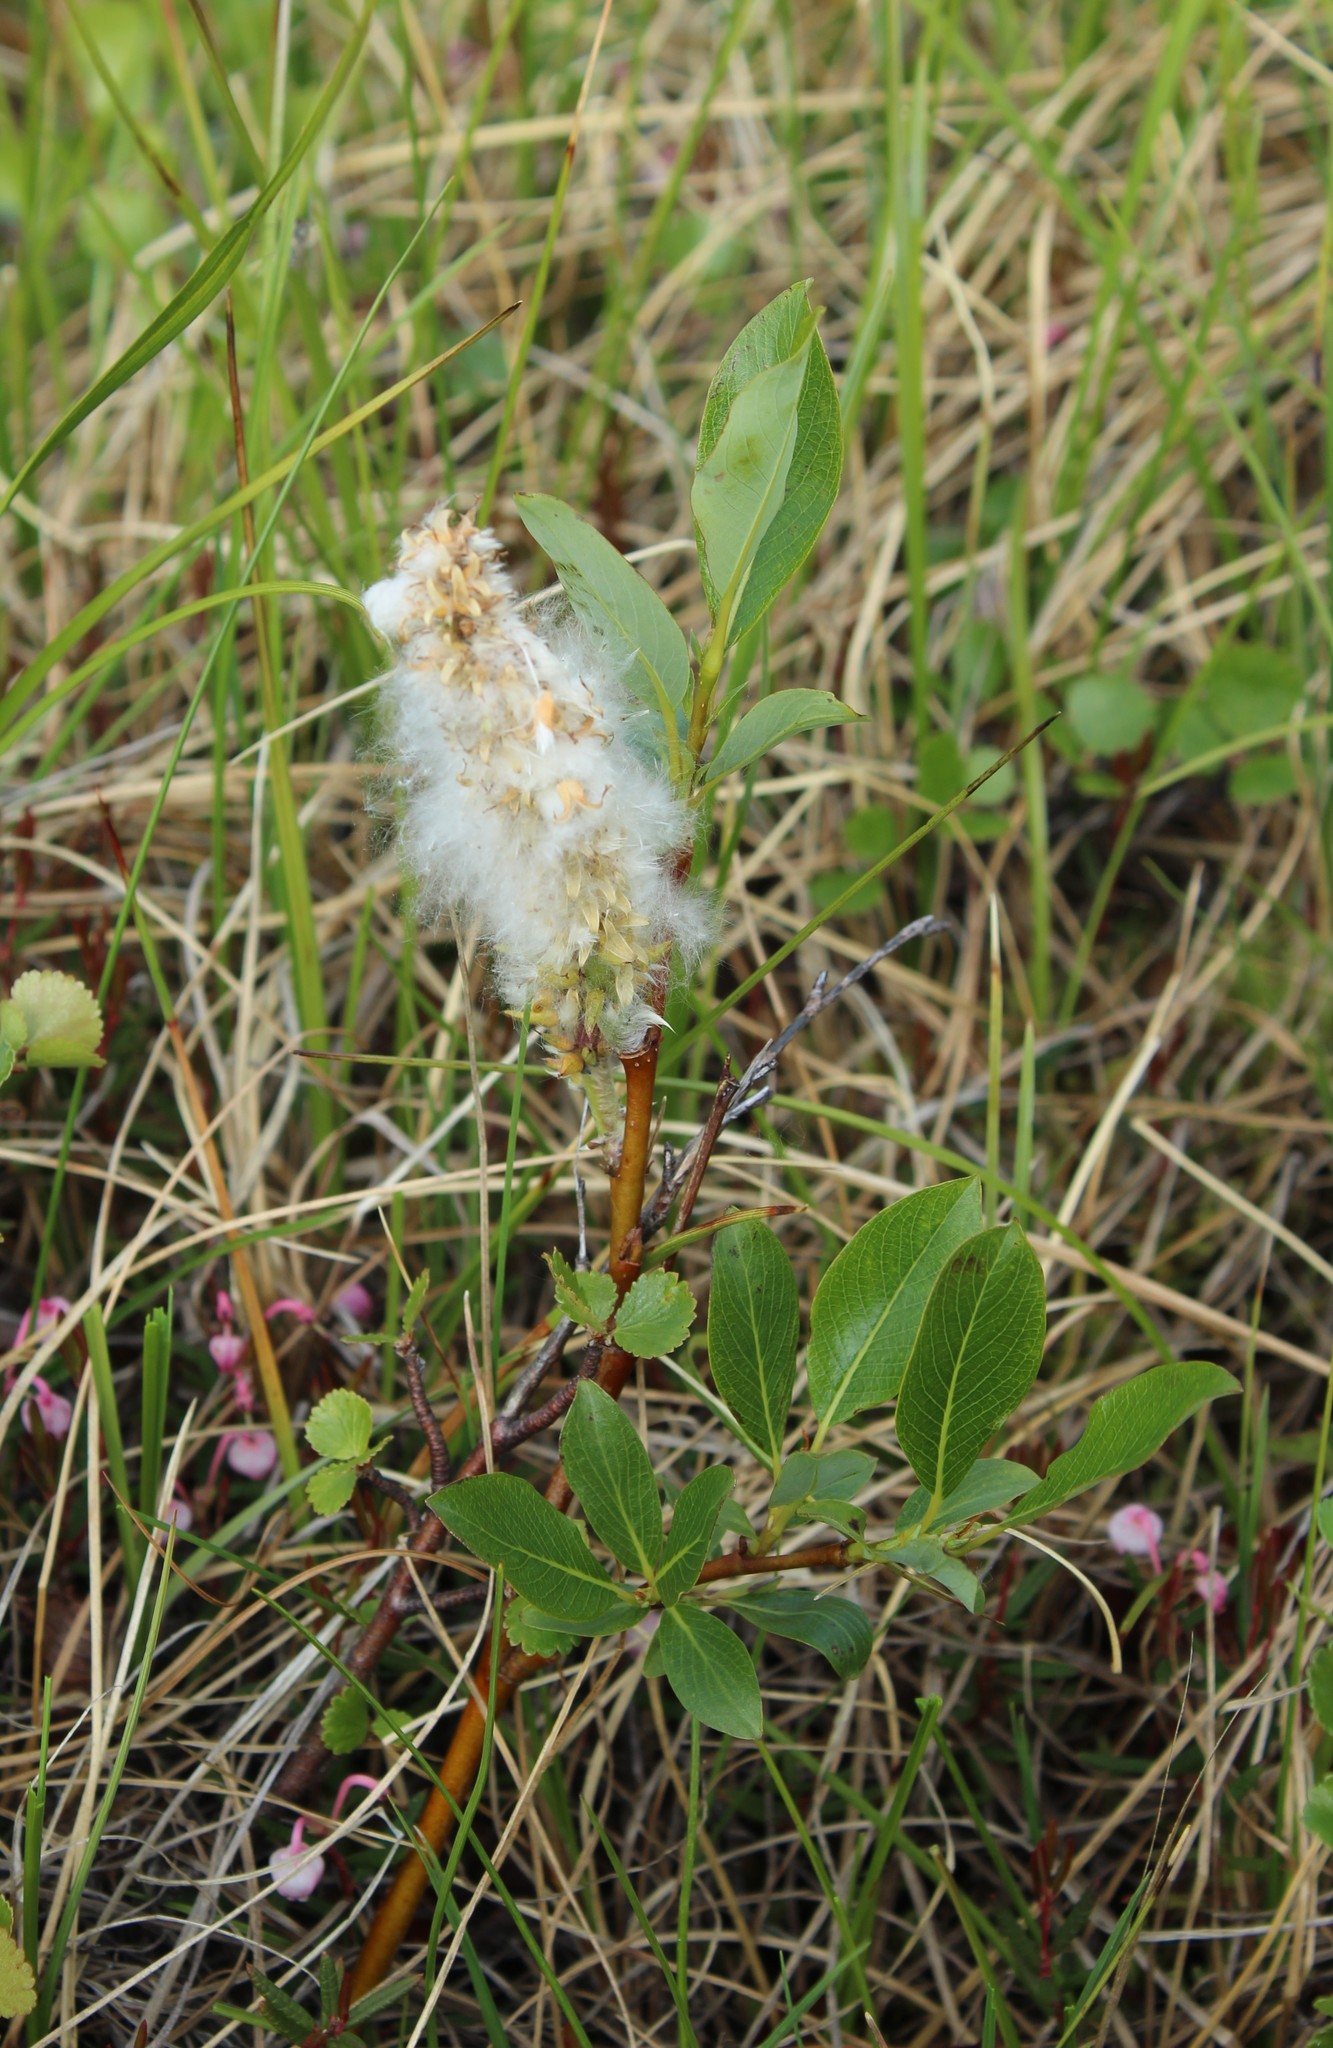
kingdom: Plantae
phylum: Tracheophyta
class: Magnoliopsida
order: Malpighiales
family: Salicaceae
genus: Salix
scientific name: Salix pulchra
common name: Diamond-leaved willow
